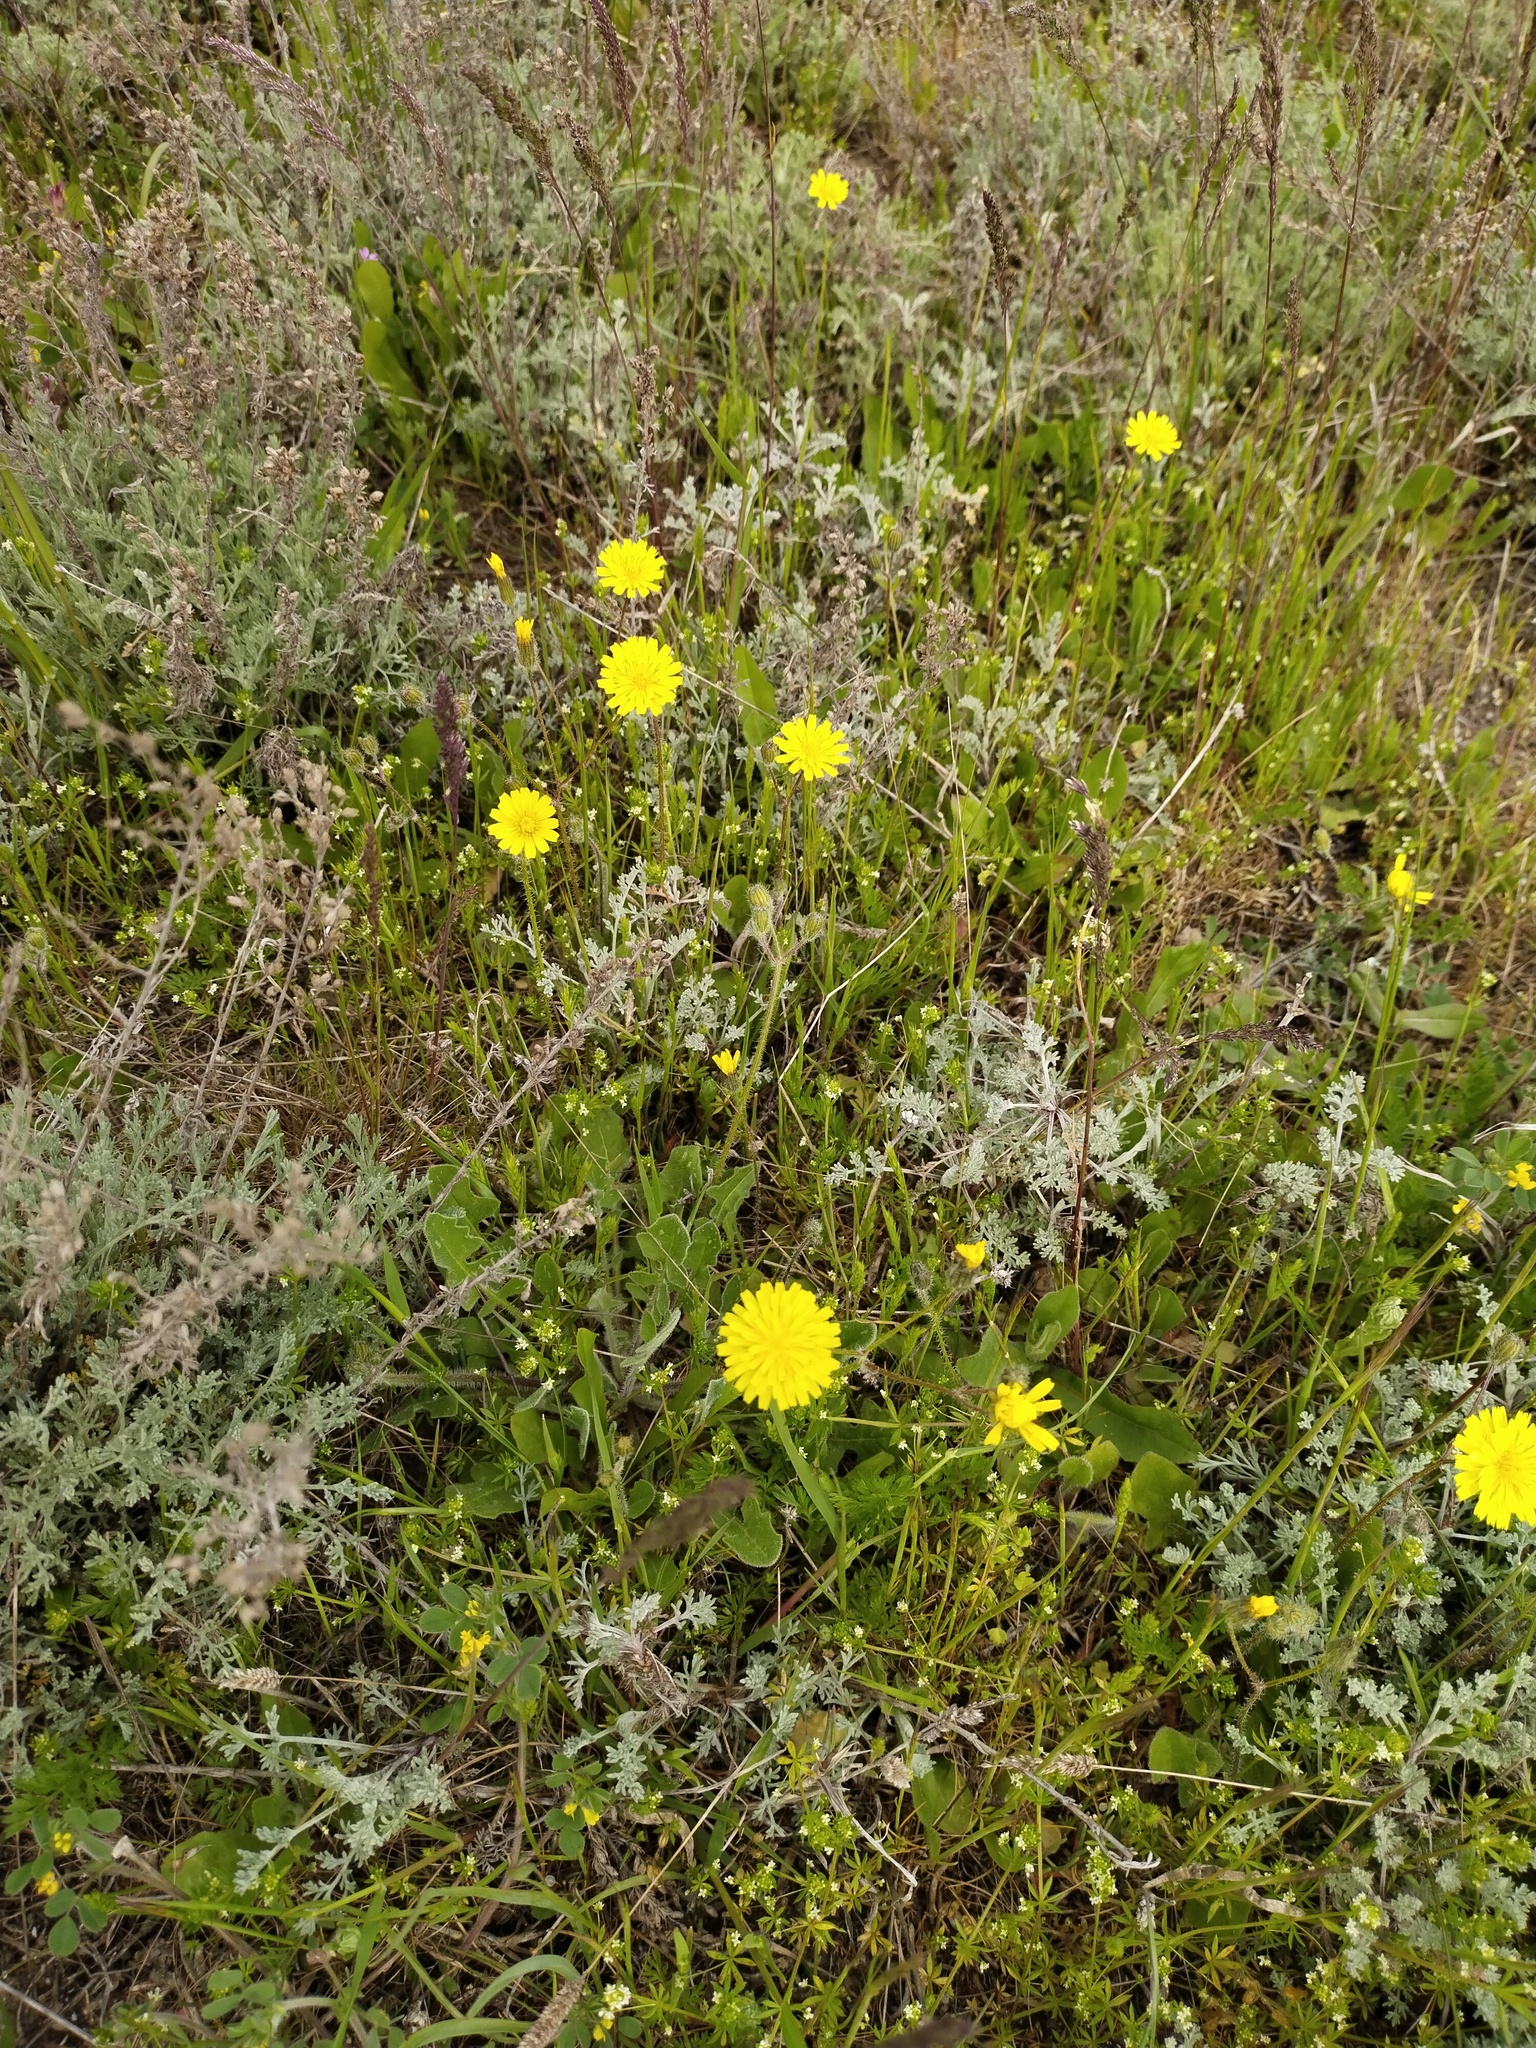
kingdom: Plantae
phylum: Tracheophyta
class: Magnoliopsida
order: Asterales
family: Asteraceae
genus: Crepis
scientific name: Crepis sancta
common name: Hawk's-beard
